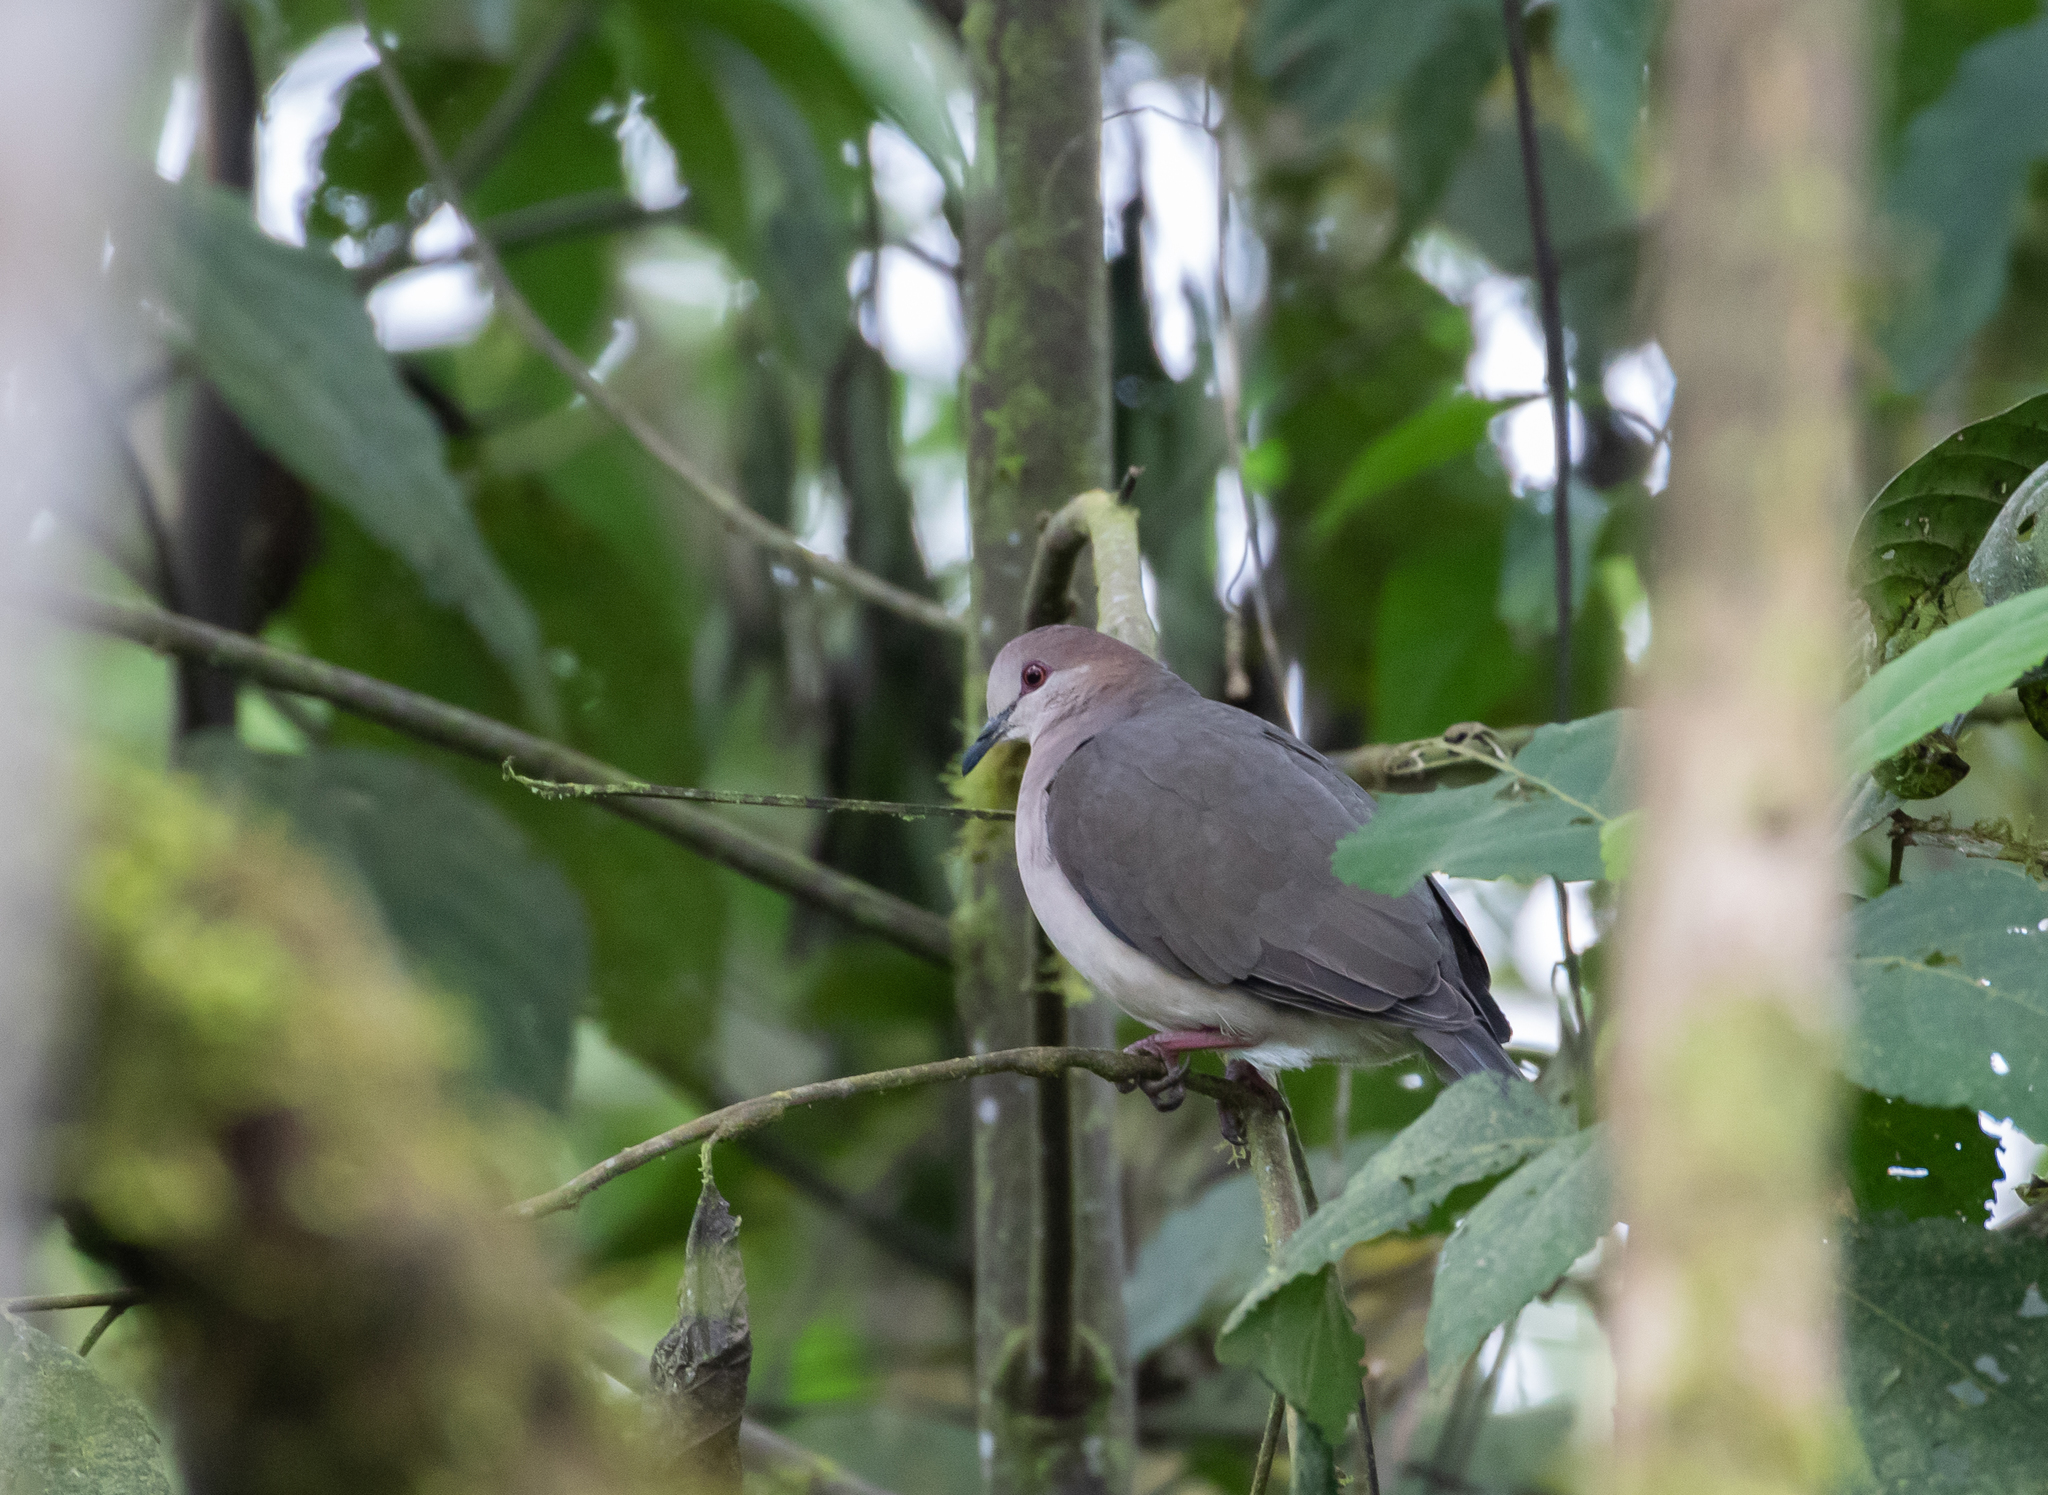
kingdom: Animalia
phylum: Chordata
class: Aves
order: Columbiformes
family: Columbidae
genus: Leptotila
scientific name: Leptotila verreauxi
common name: White-tipped dove
